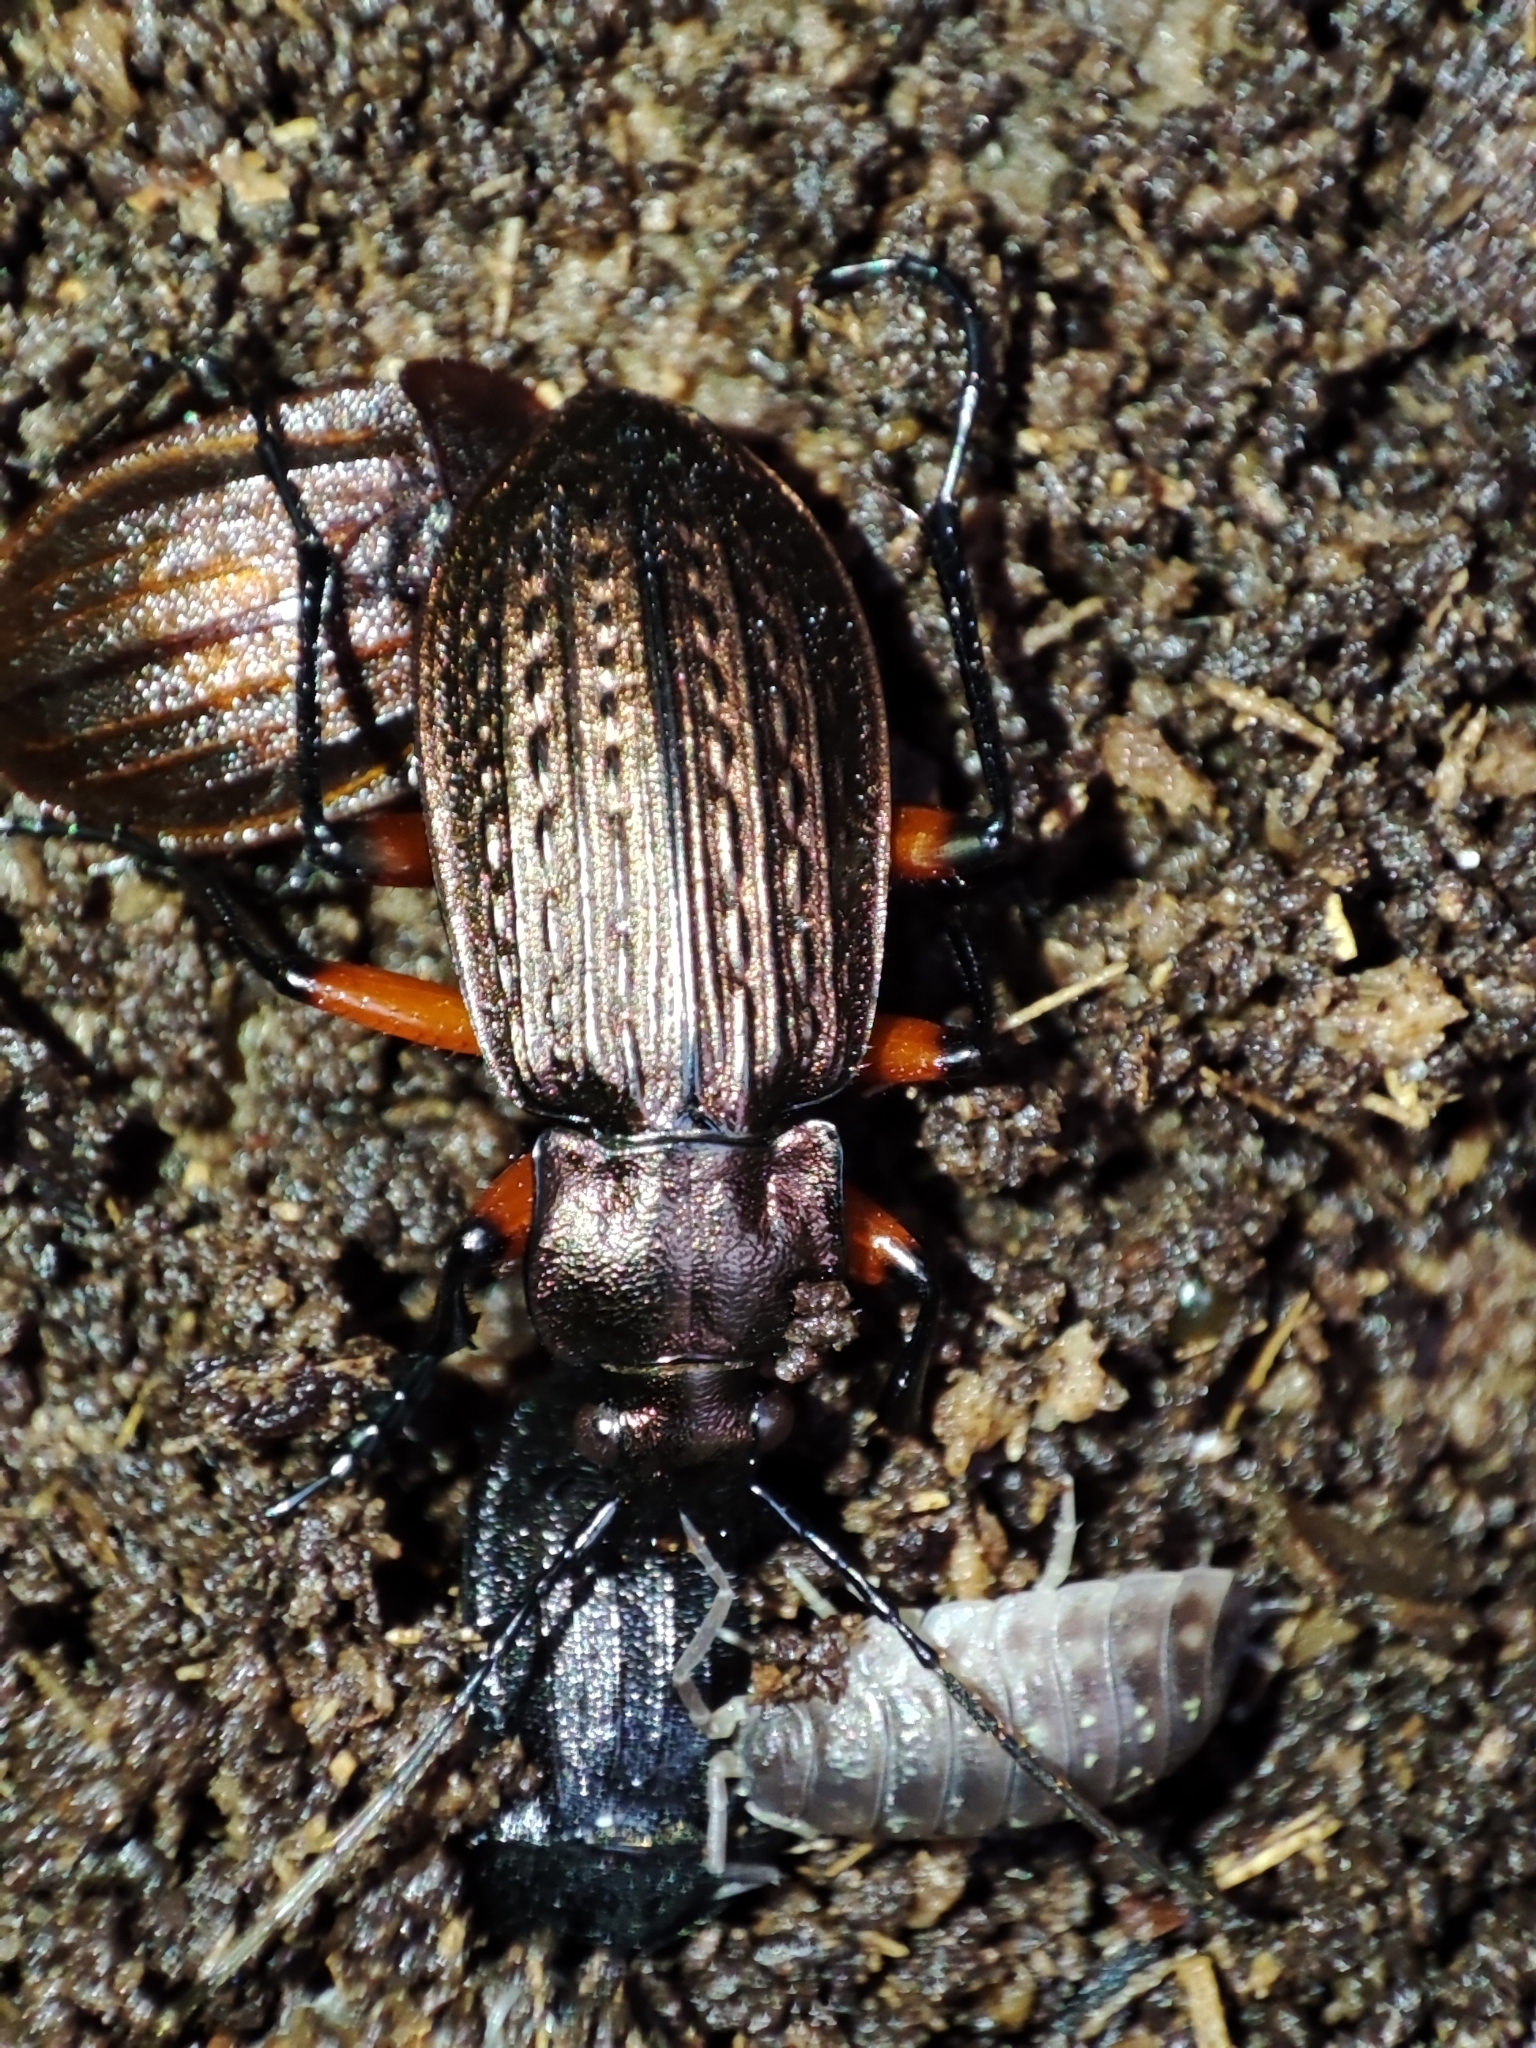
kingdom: Animalia
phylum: Arthropoda
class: Insecta
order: Coleoptera
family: Carabidae
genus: Carabus
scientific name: Carabus granulatus
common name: Granulate ground beetle
